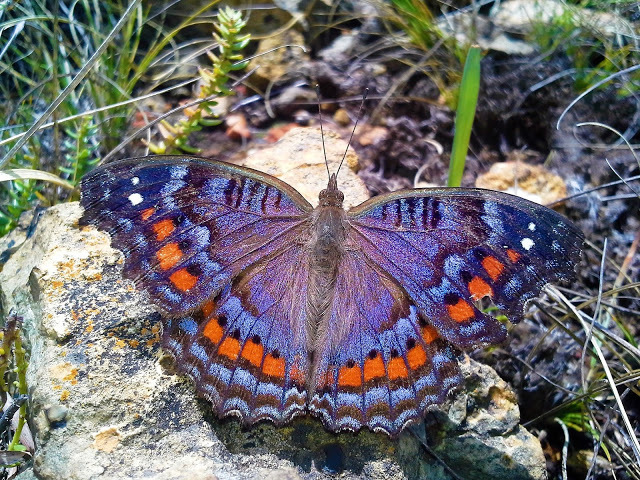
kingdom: Animalia
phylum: Arthropoda
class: Insecta
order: Lepidoptera
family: Nymphalidae
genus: Precis
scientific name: Precis octavia
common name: Gaudy commodore
